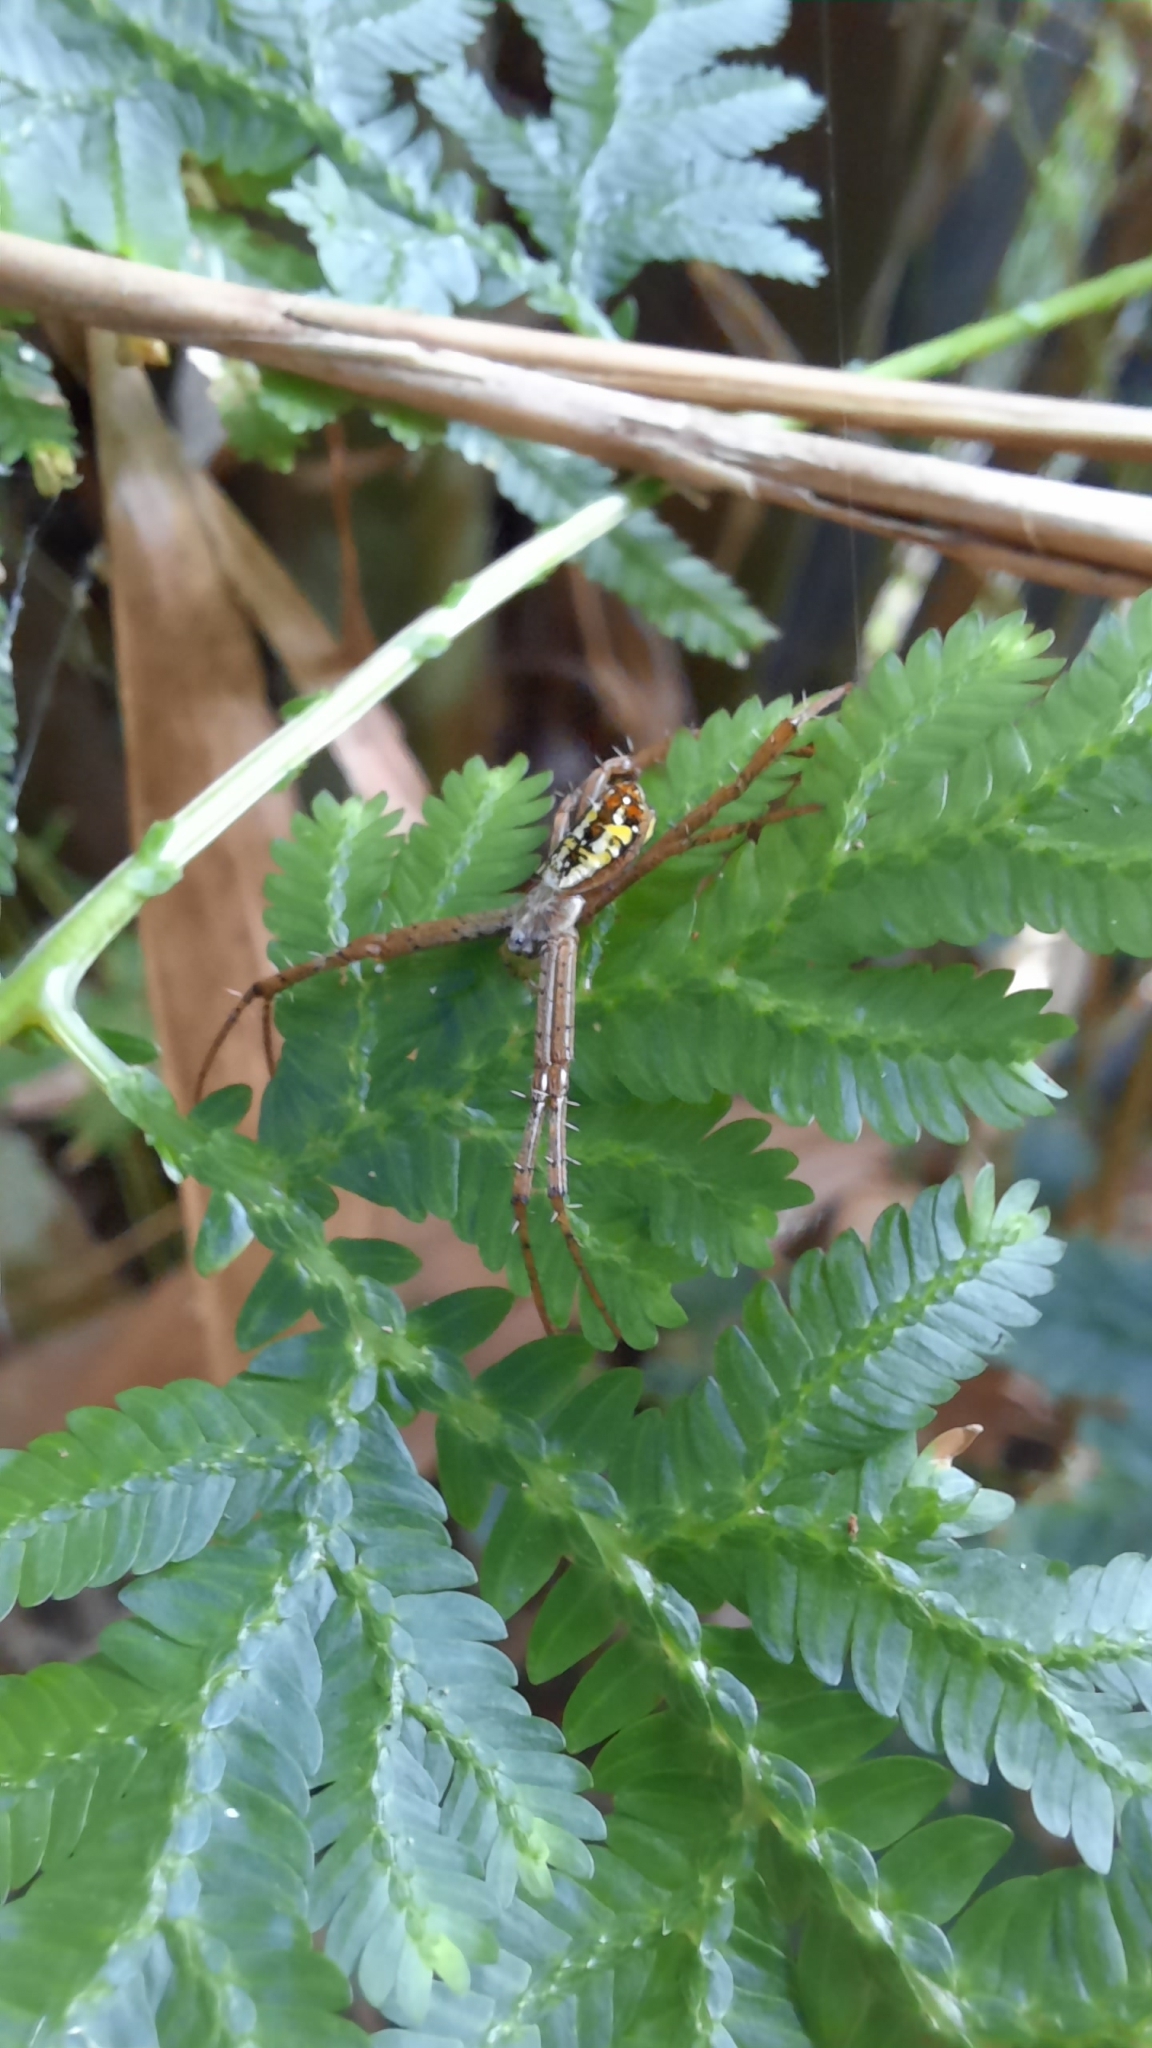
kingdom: Animalia
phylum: Arthropoda
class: Arachnida
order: Araneae
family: Araneidae
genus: Argiope
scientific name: Argiope dang
